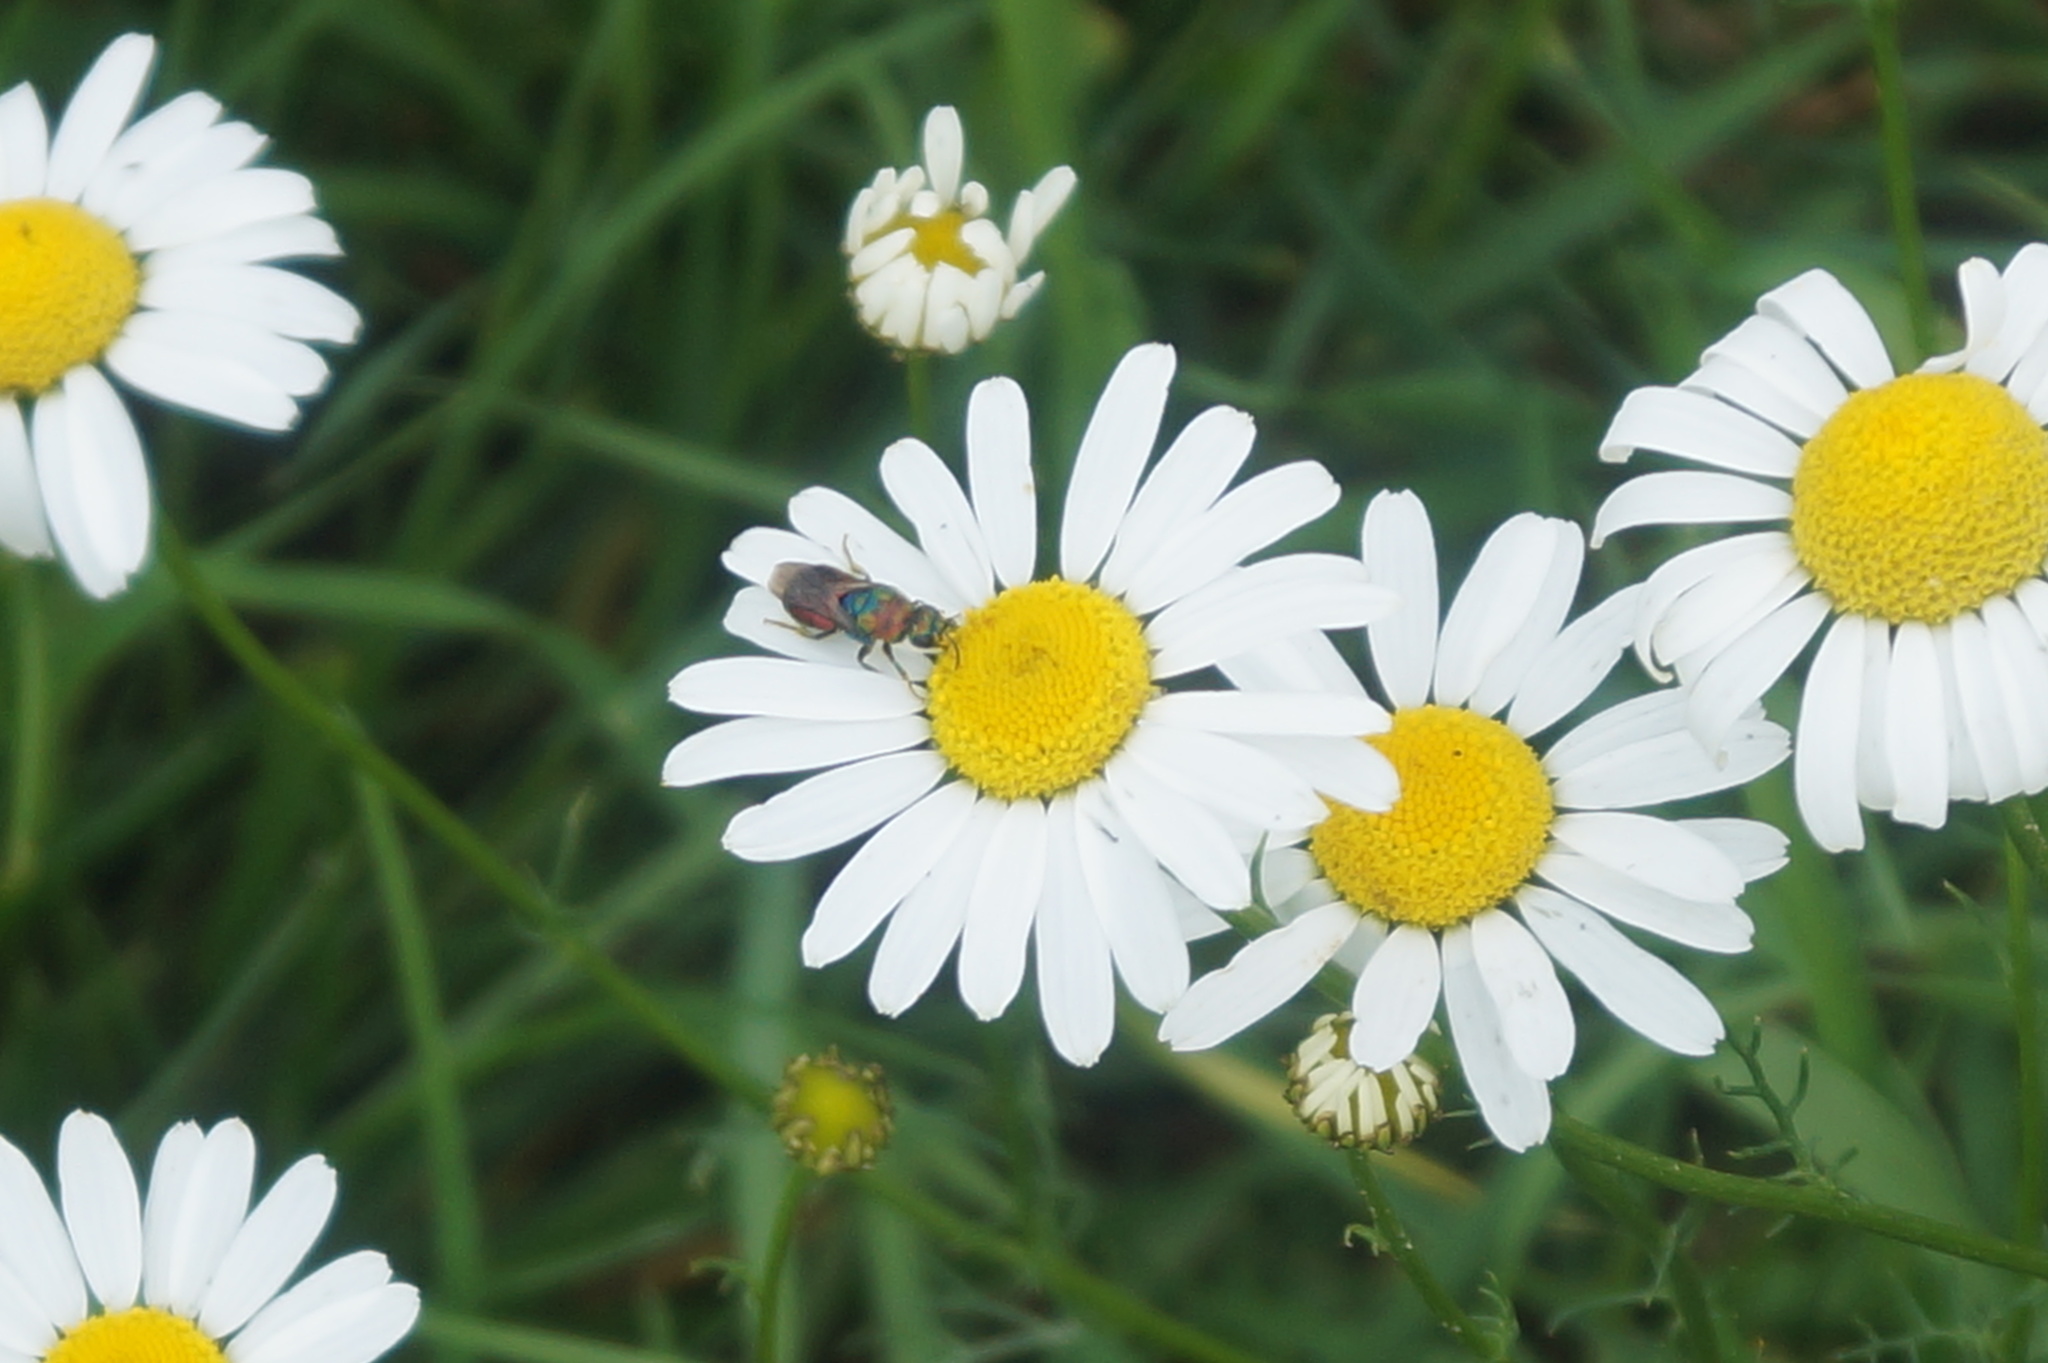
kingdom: Animalia
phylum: Arthropoda
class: Insecta
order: Hymenoptera
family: Chrysididae
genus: Hedychrum
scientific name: Hedychrum rutilans
